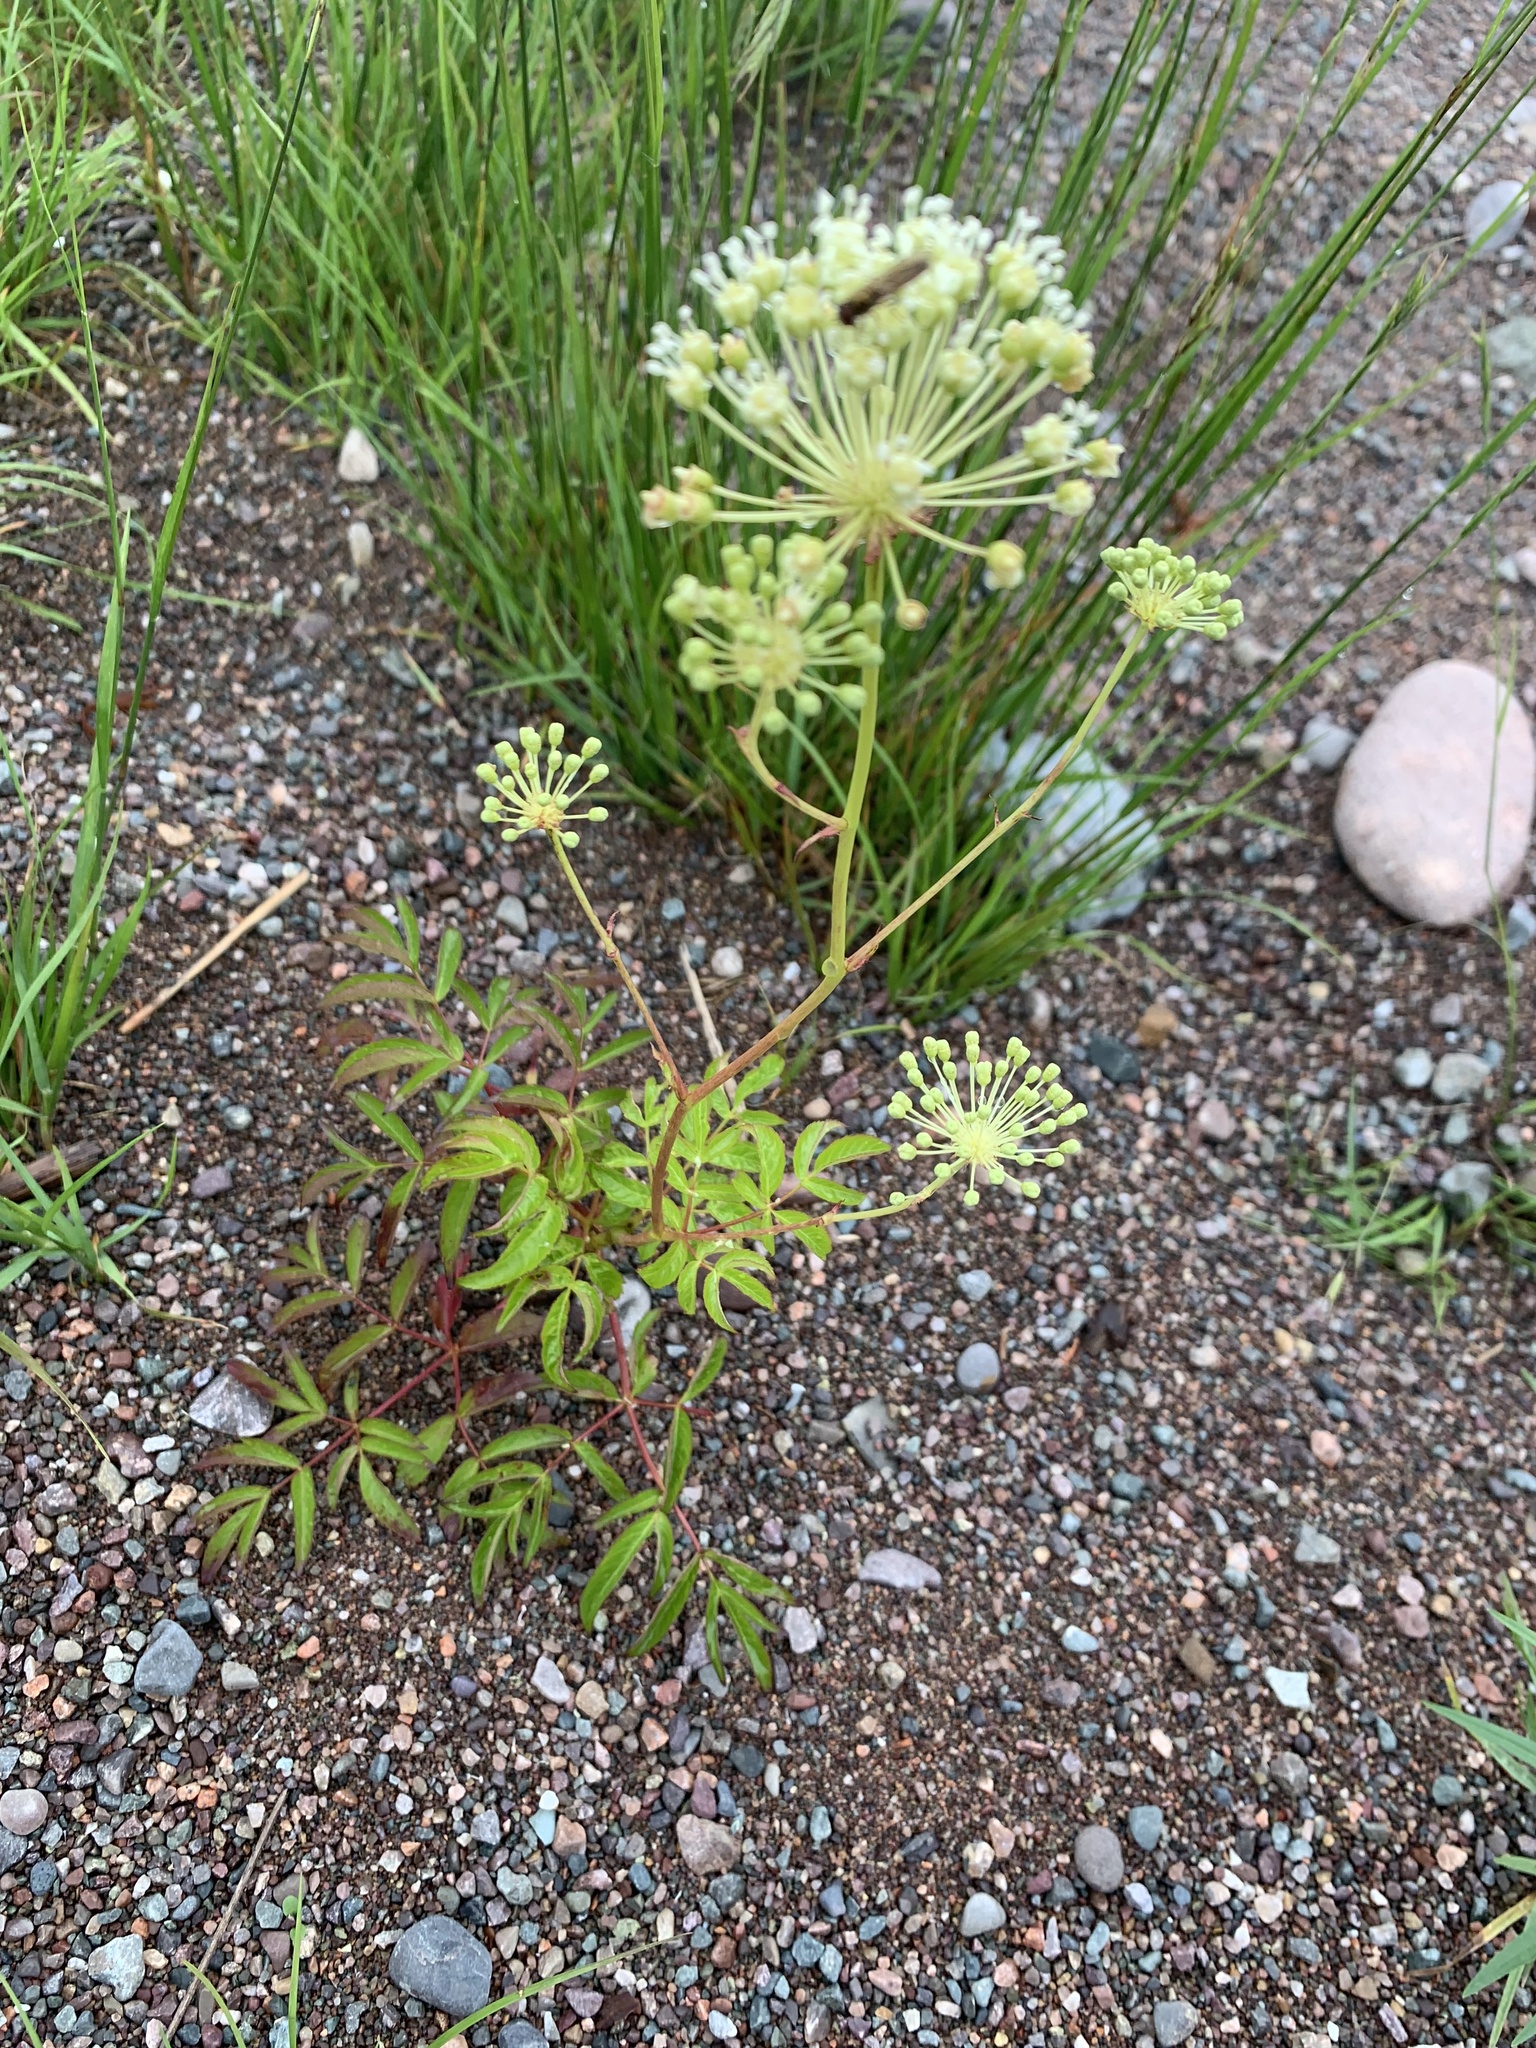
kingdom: Plantae
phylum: Tracheophyta
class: Magnoliopsida
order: Apiales
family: Araliaceae
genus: Aralia
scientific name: Aralia hispida
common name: Bristly sarsaparilla
